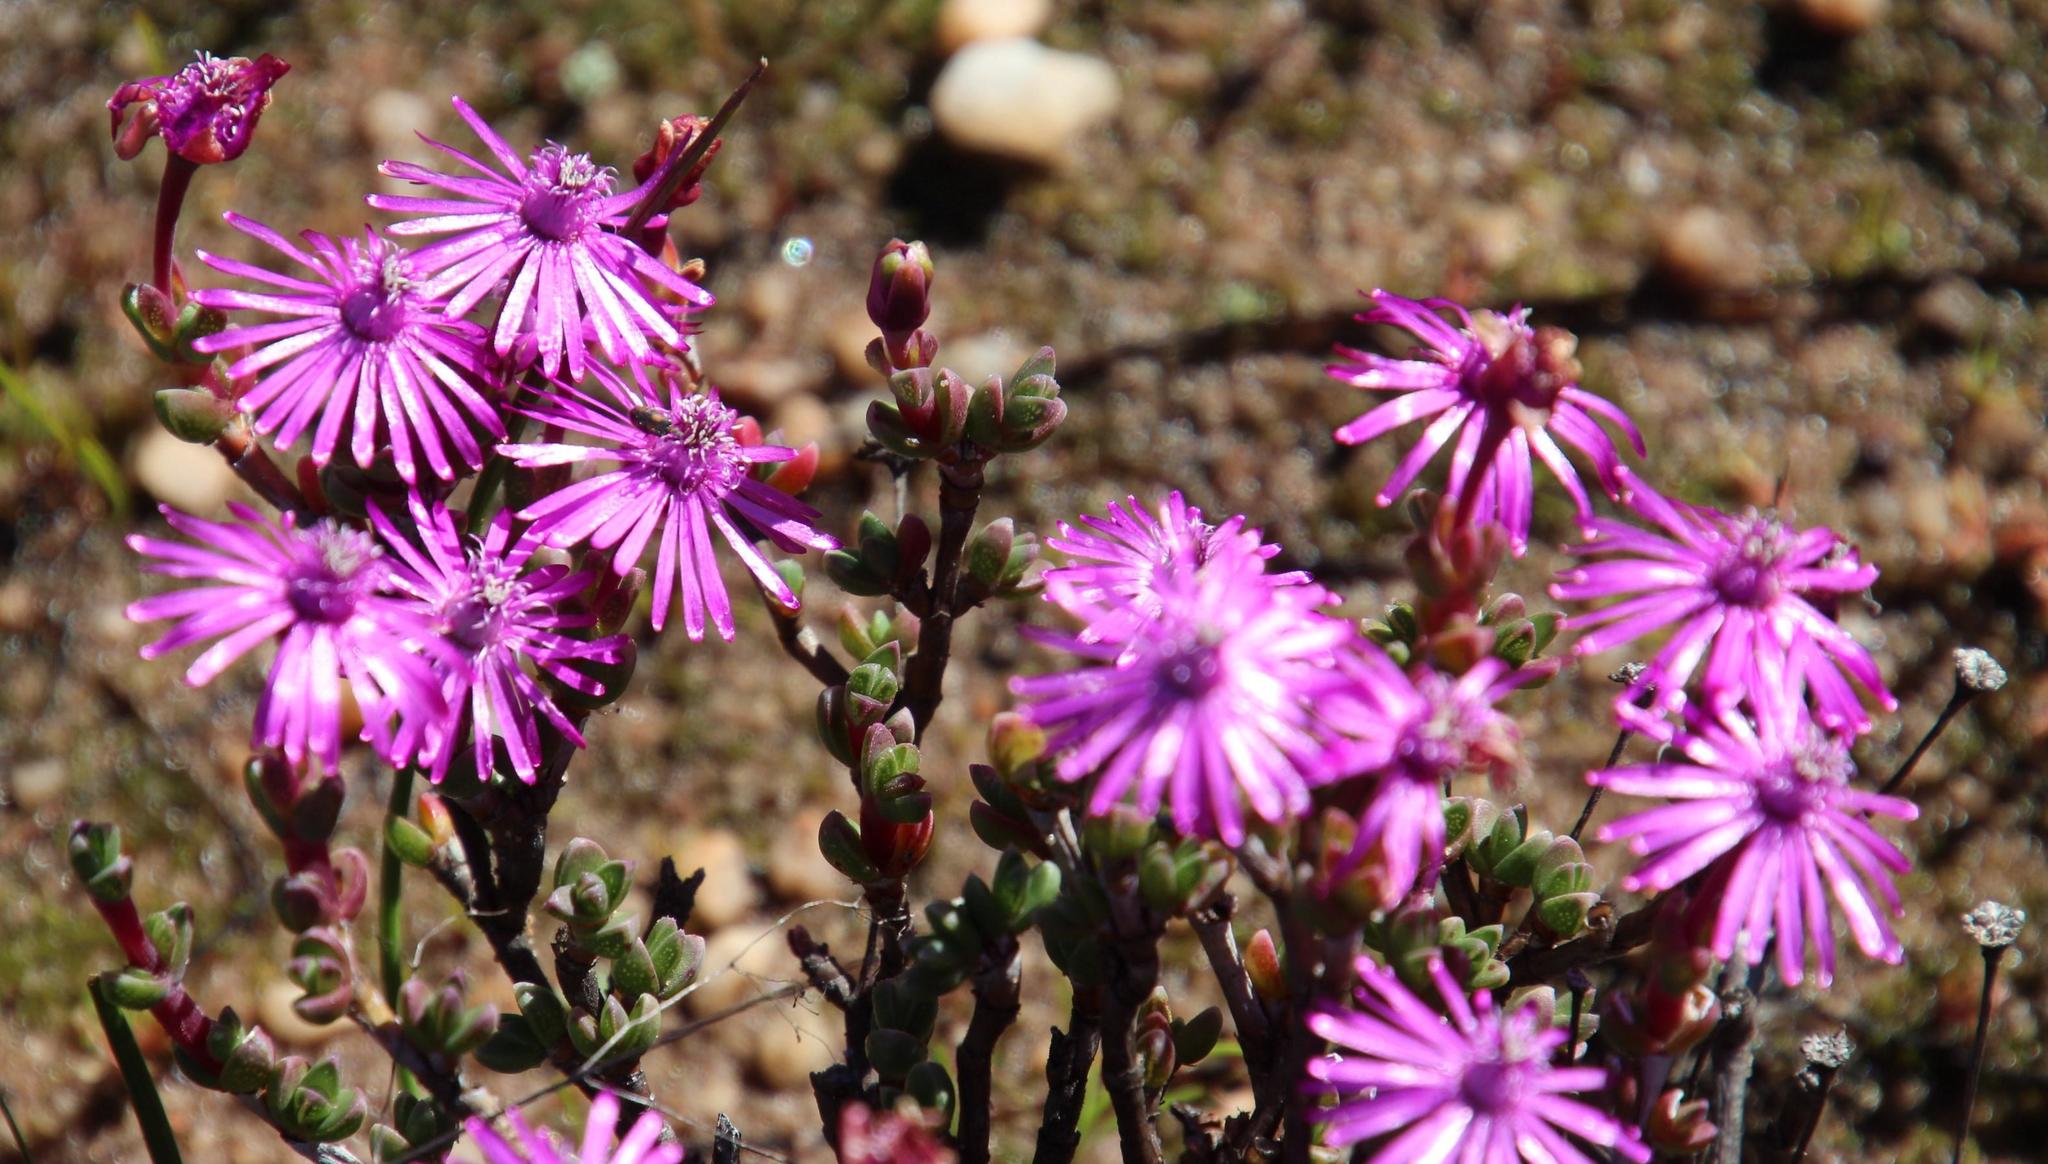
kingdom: Plantae
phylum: Tracheophyta
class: Magnoliopsida
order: Caryophyllales
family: Aizoaceae
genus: Antimima
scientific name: Antimima paucifolia
